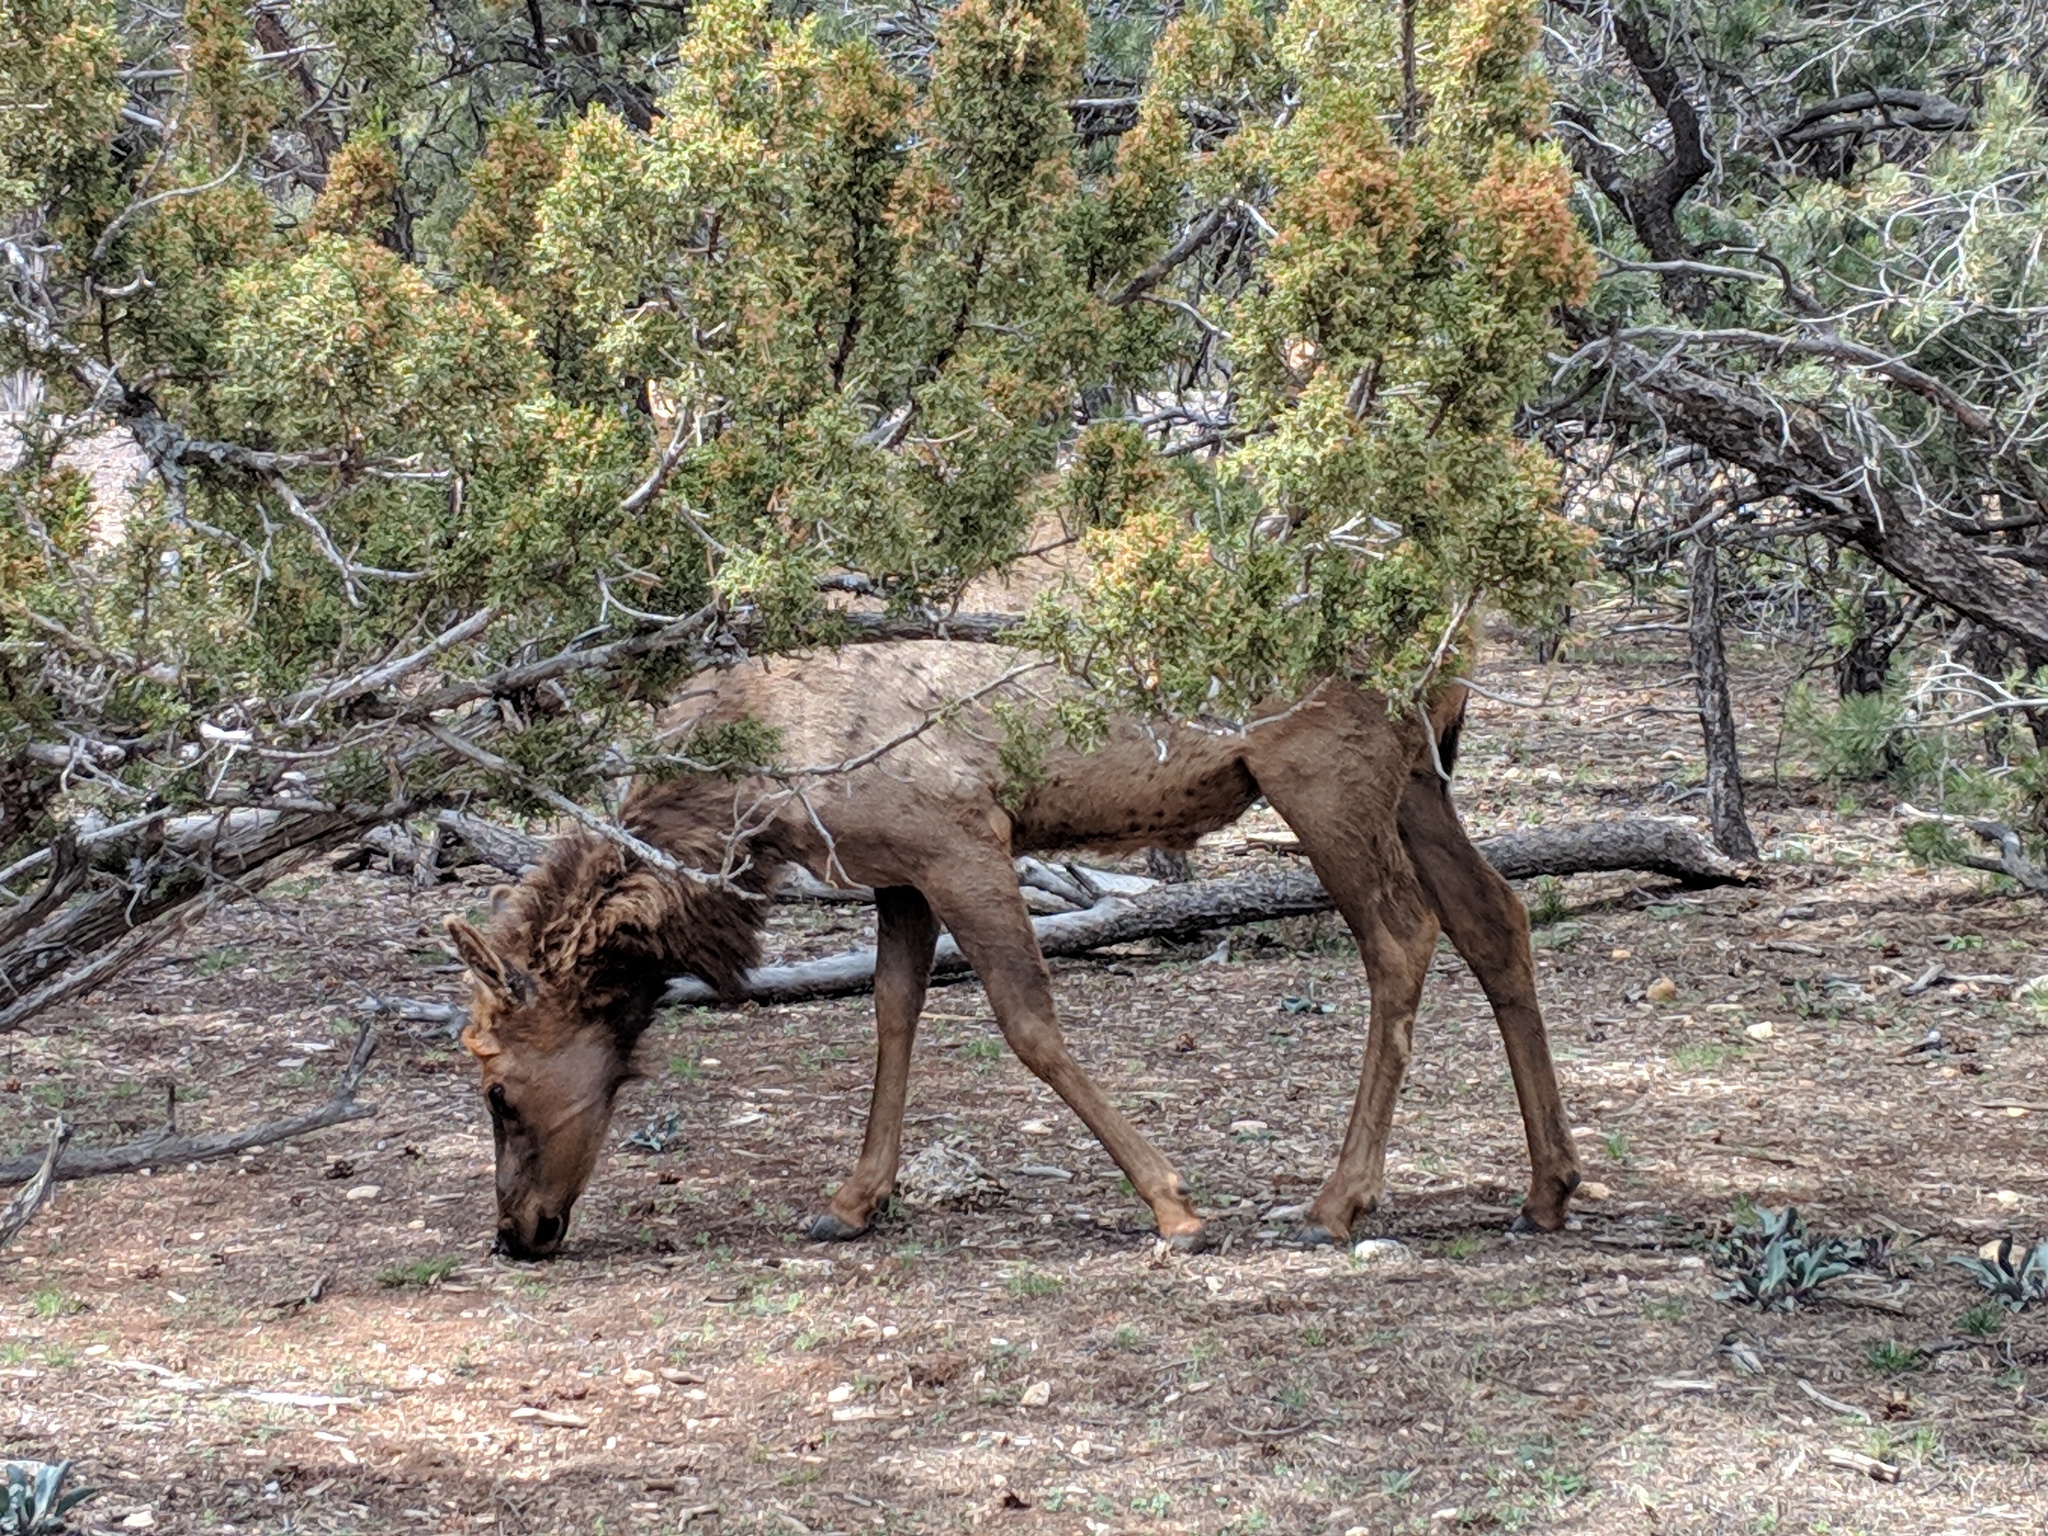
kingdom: Animalia
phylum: Chordata
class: Mammalia
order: Artiodactyla
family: Cervidae
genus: Cervus
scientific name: Cervus elaphus
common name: Red deer
